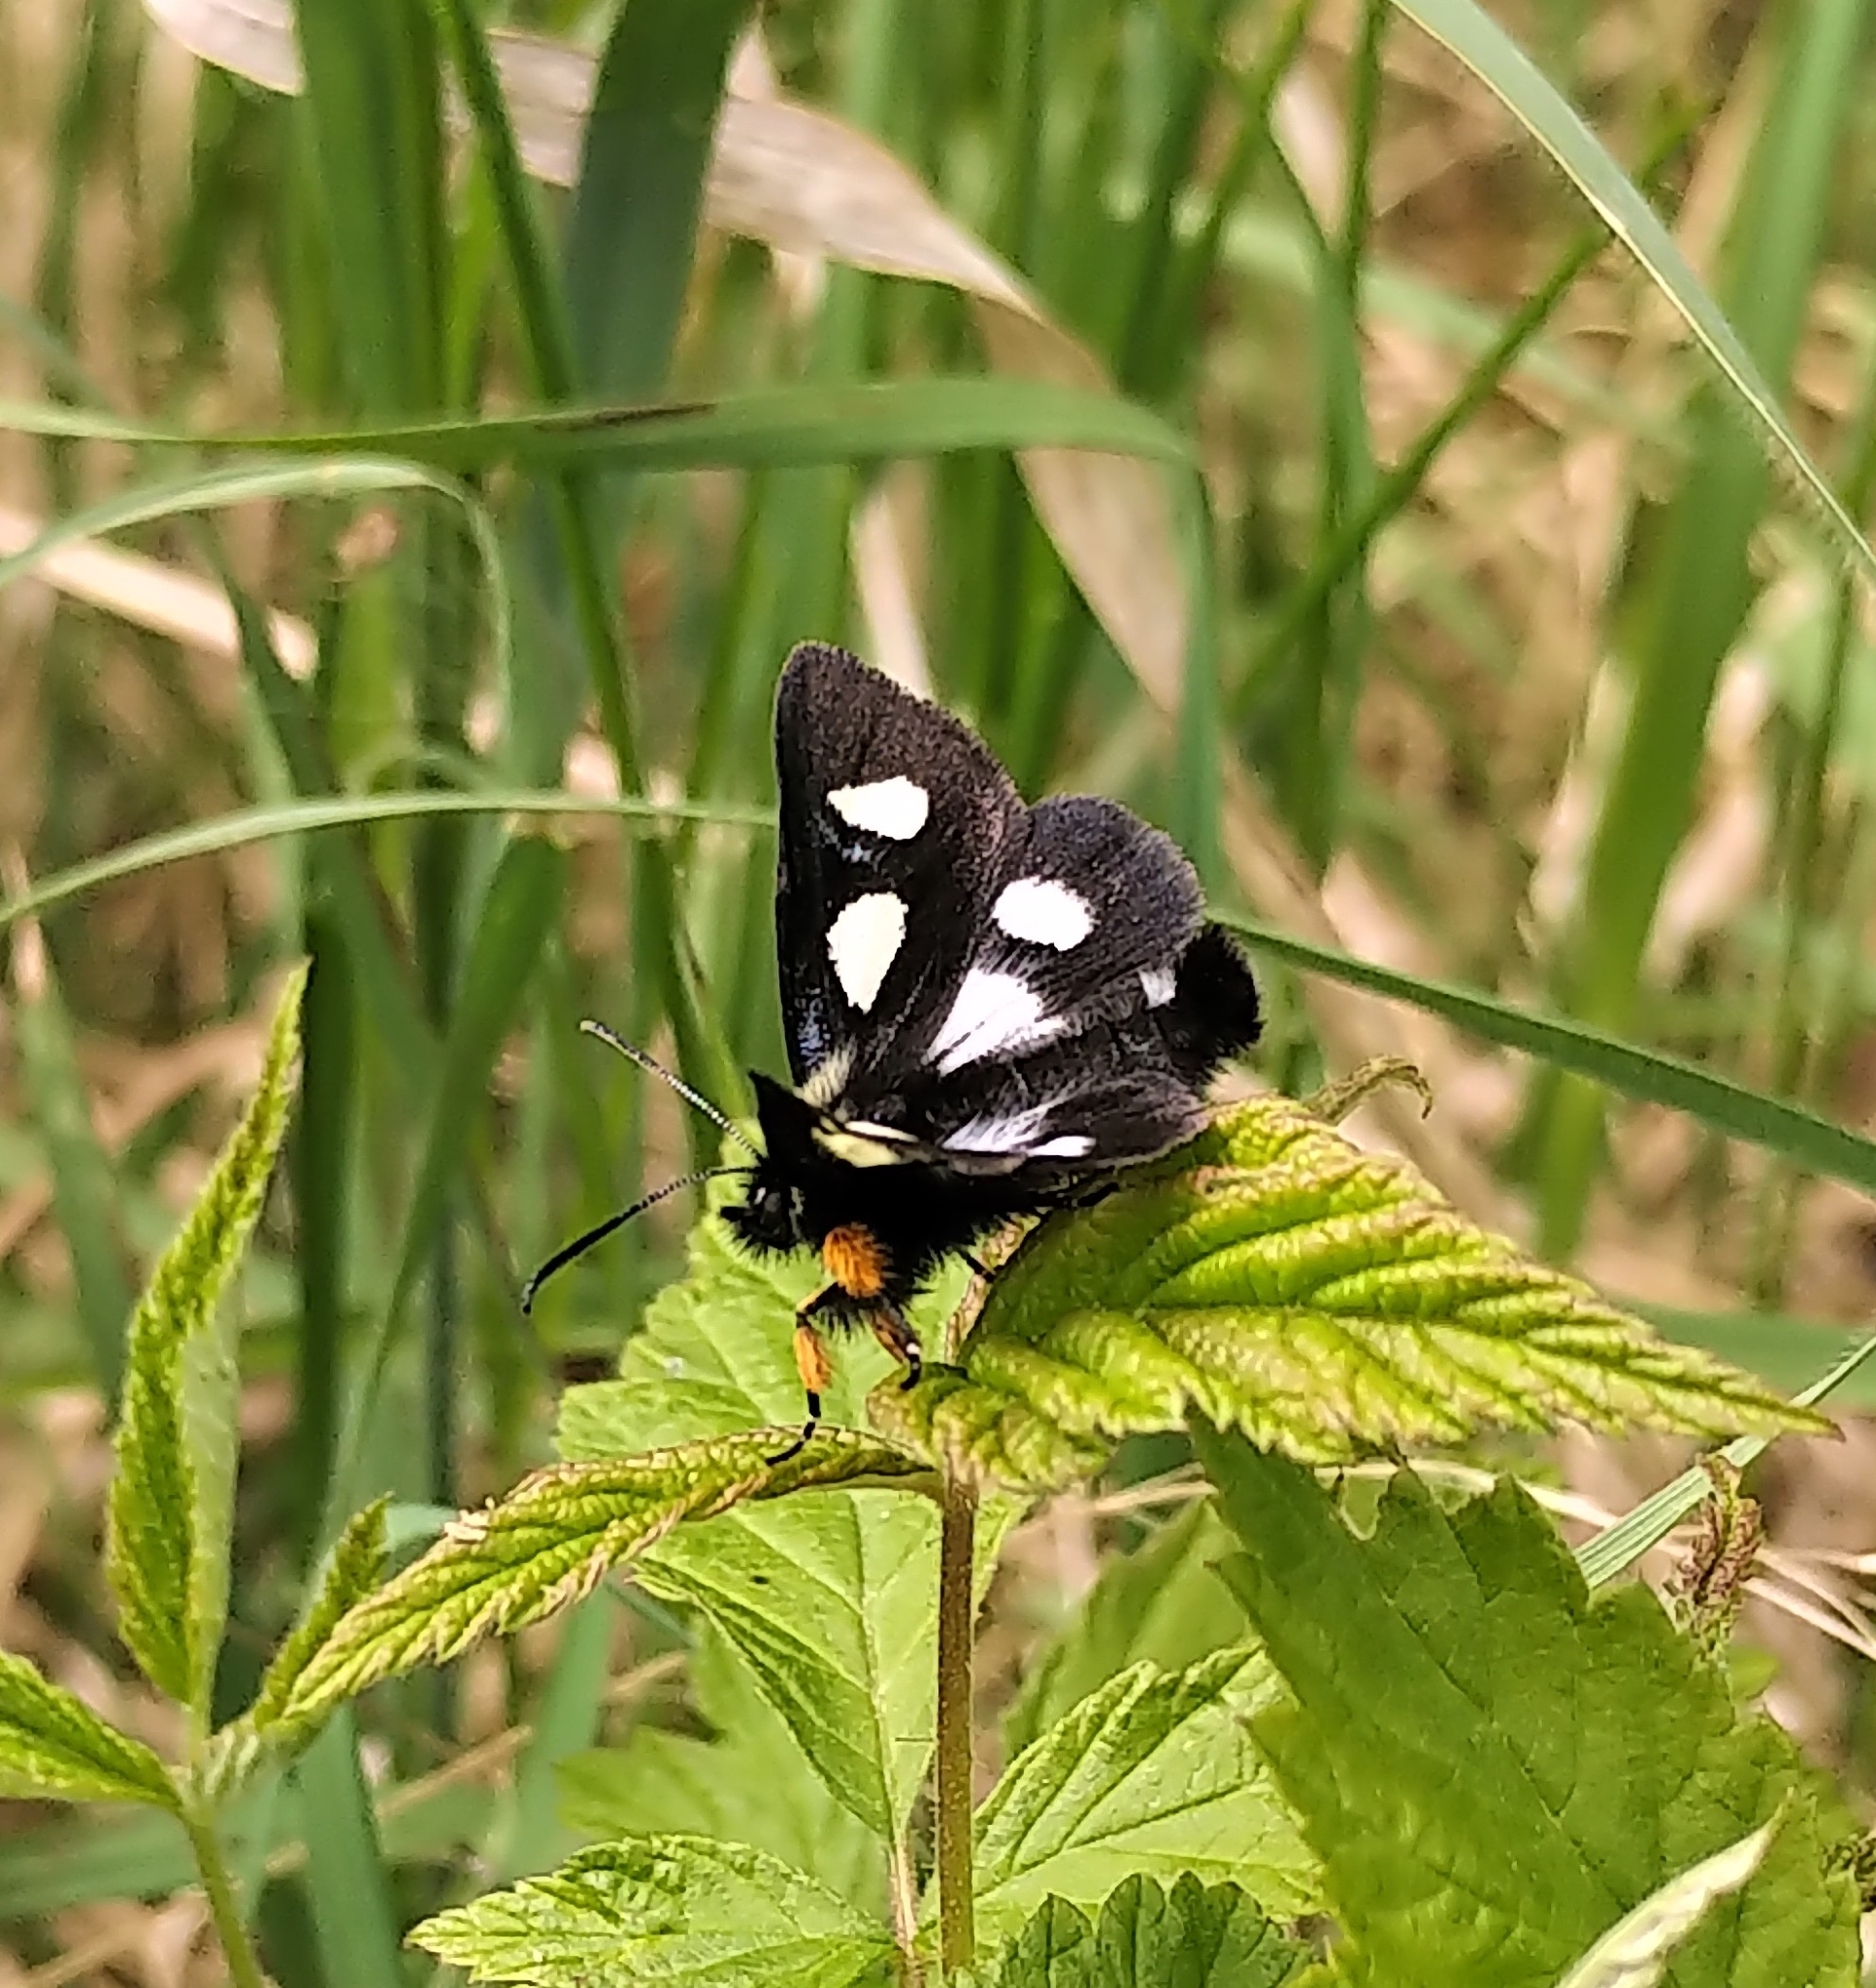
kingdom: Animalia
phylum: Arthropoda
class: Insecta
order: Lepidoptera
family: Noctuidae
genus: Alypia
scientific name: Alypia langtonii
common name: Fireweed caterpillar
